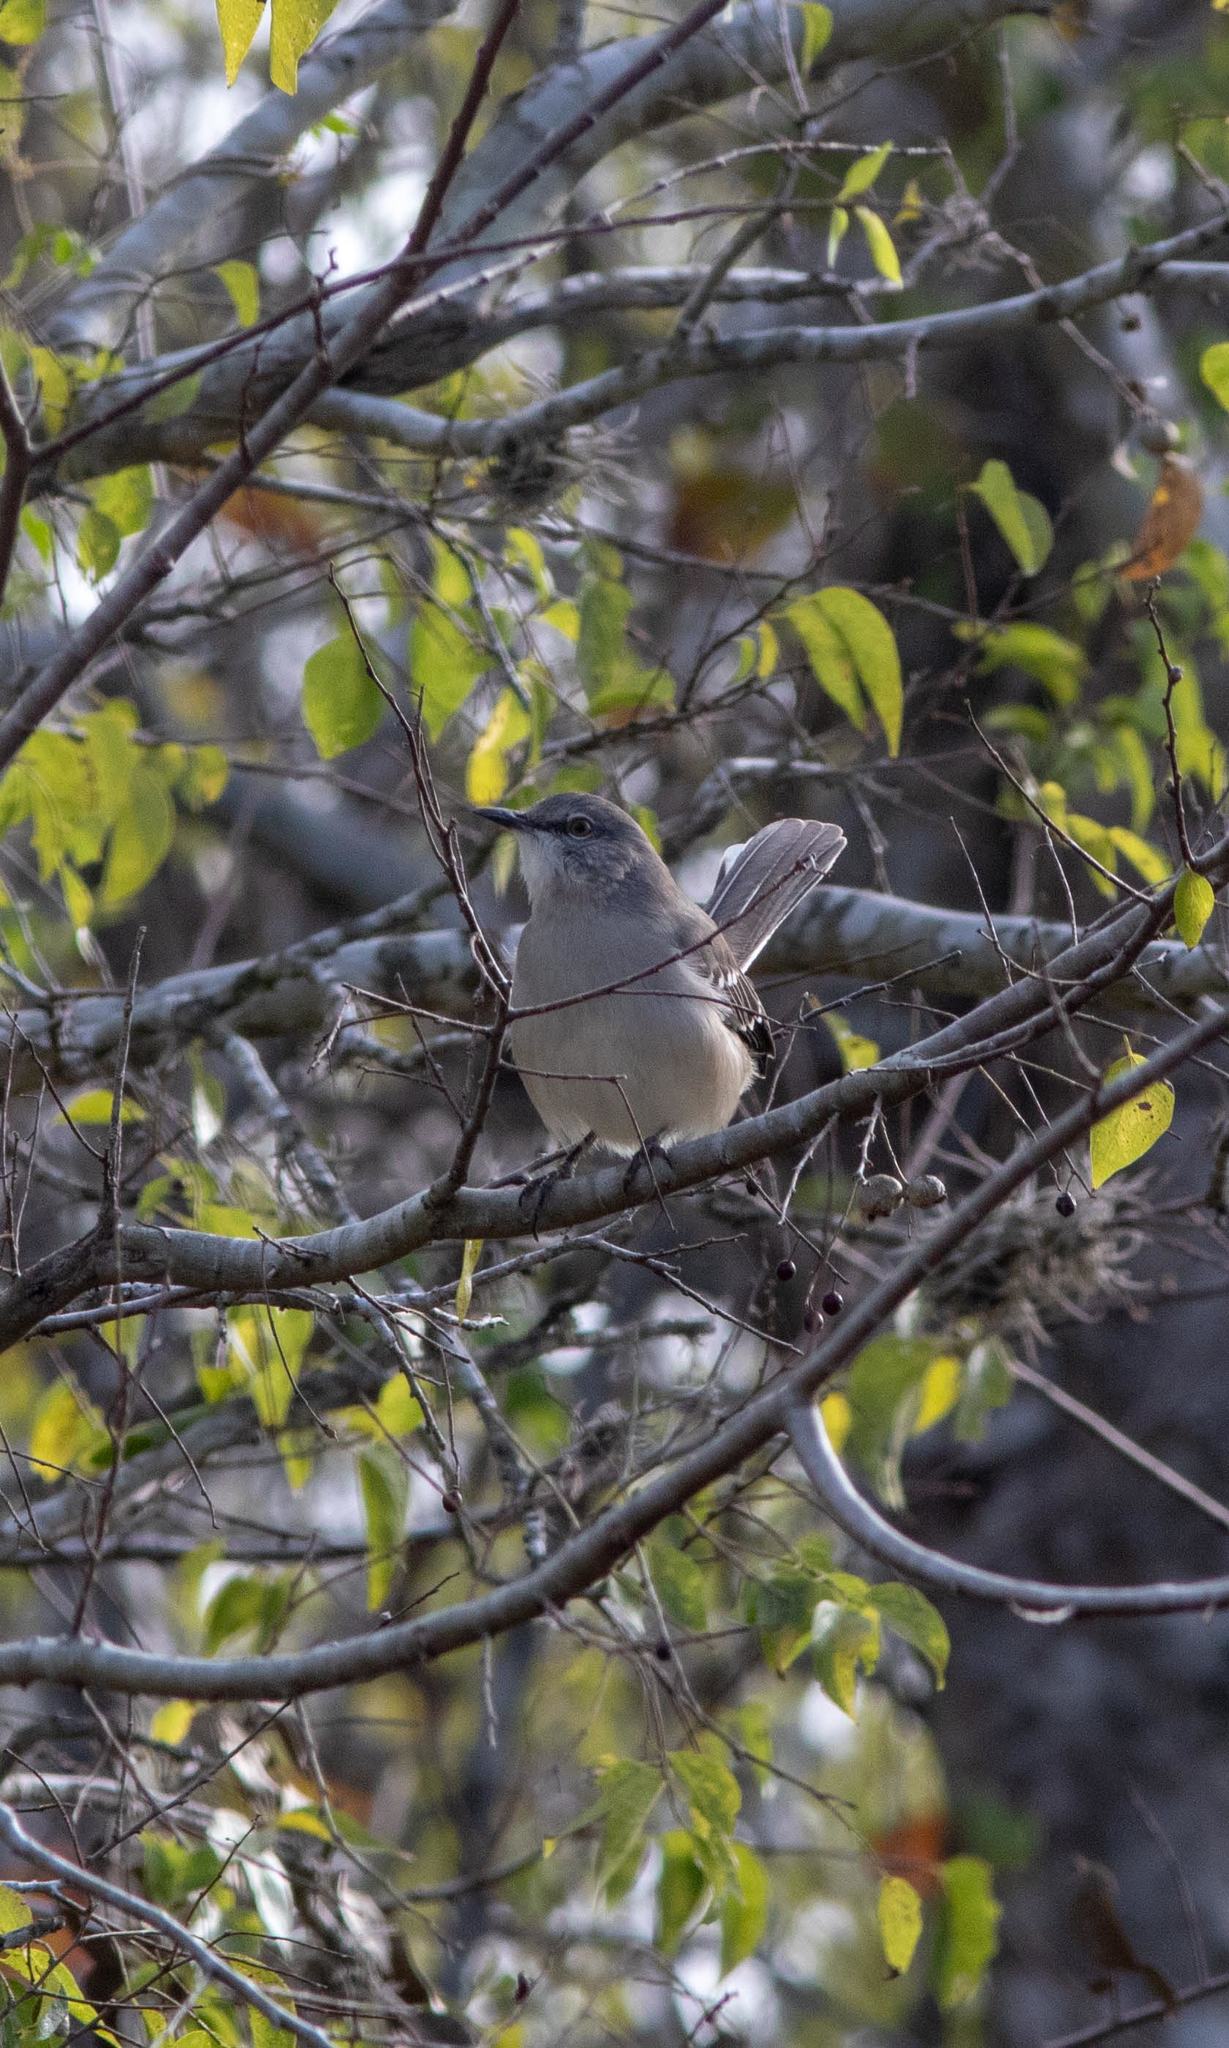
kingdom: Animalia
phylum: Chordata
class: Aves
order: Passeriformes
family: Mimidae
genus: Mimus
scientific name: Mimus polyglottos
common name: Northern mockingbird
